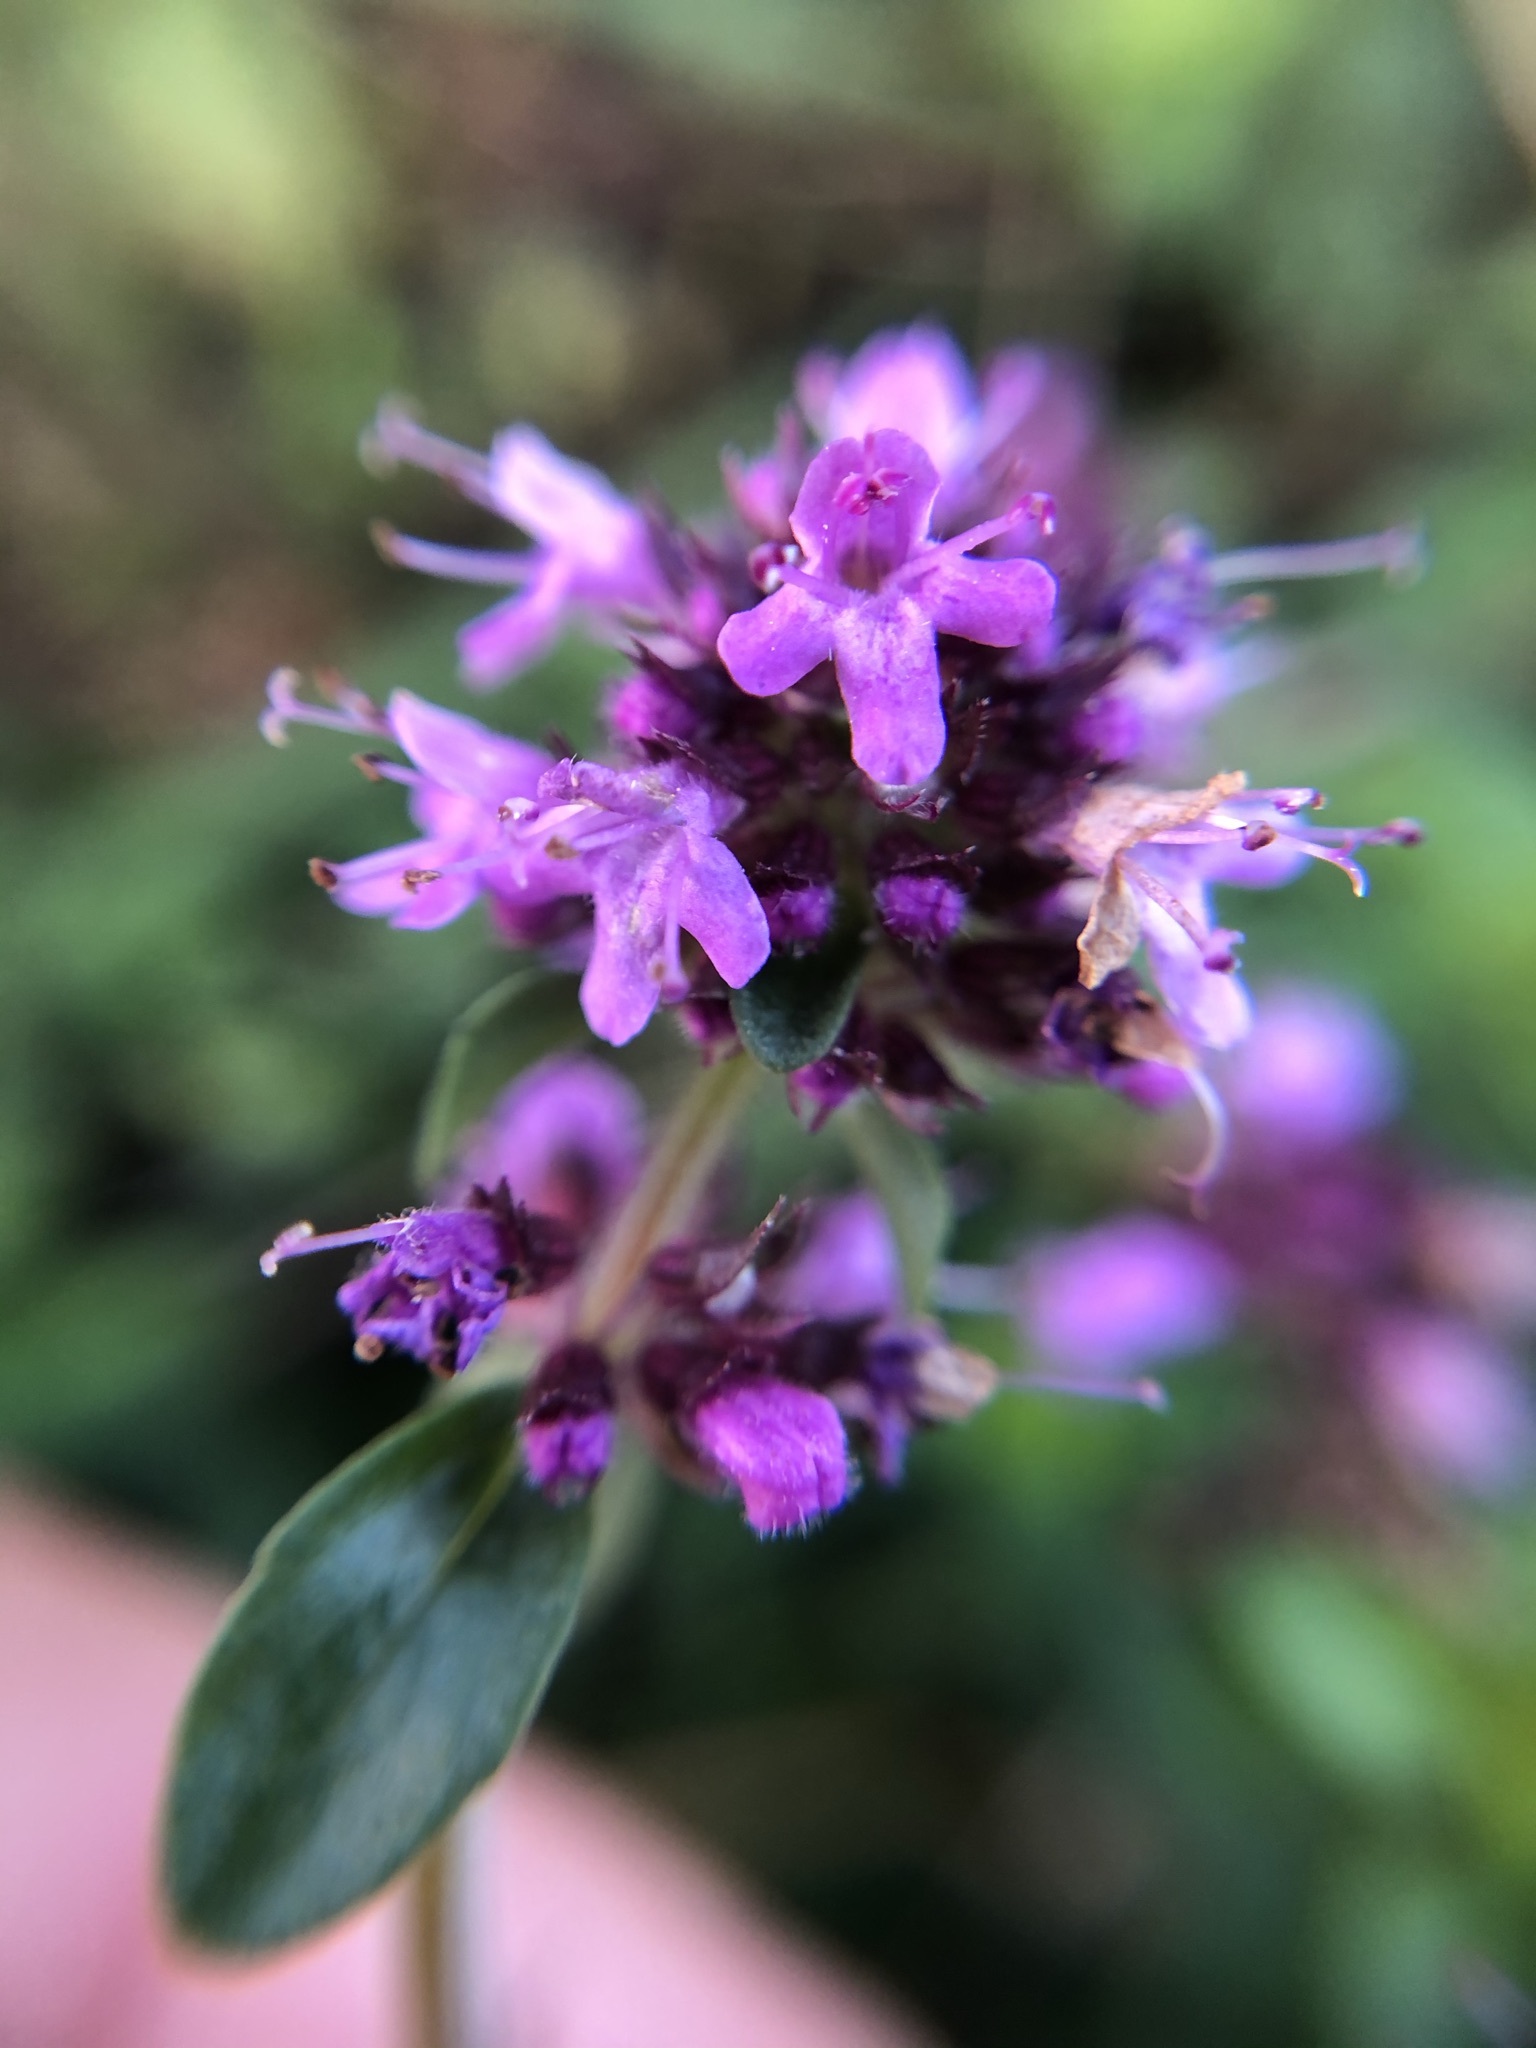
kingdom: Plantae
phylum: Tracheophyta
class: Magnoliopsida
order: Lamiales
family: Lamiaceae
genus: Thymus
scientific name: Thymus pulegioides
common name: Large thyme
